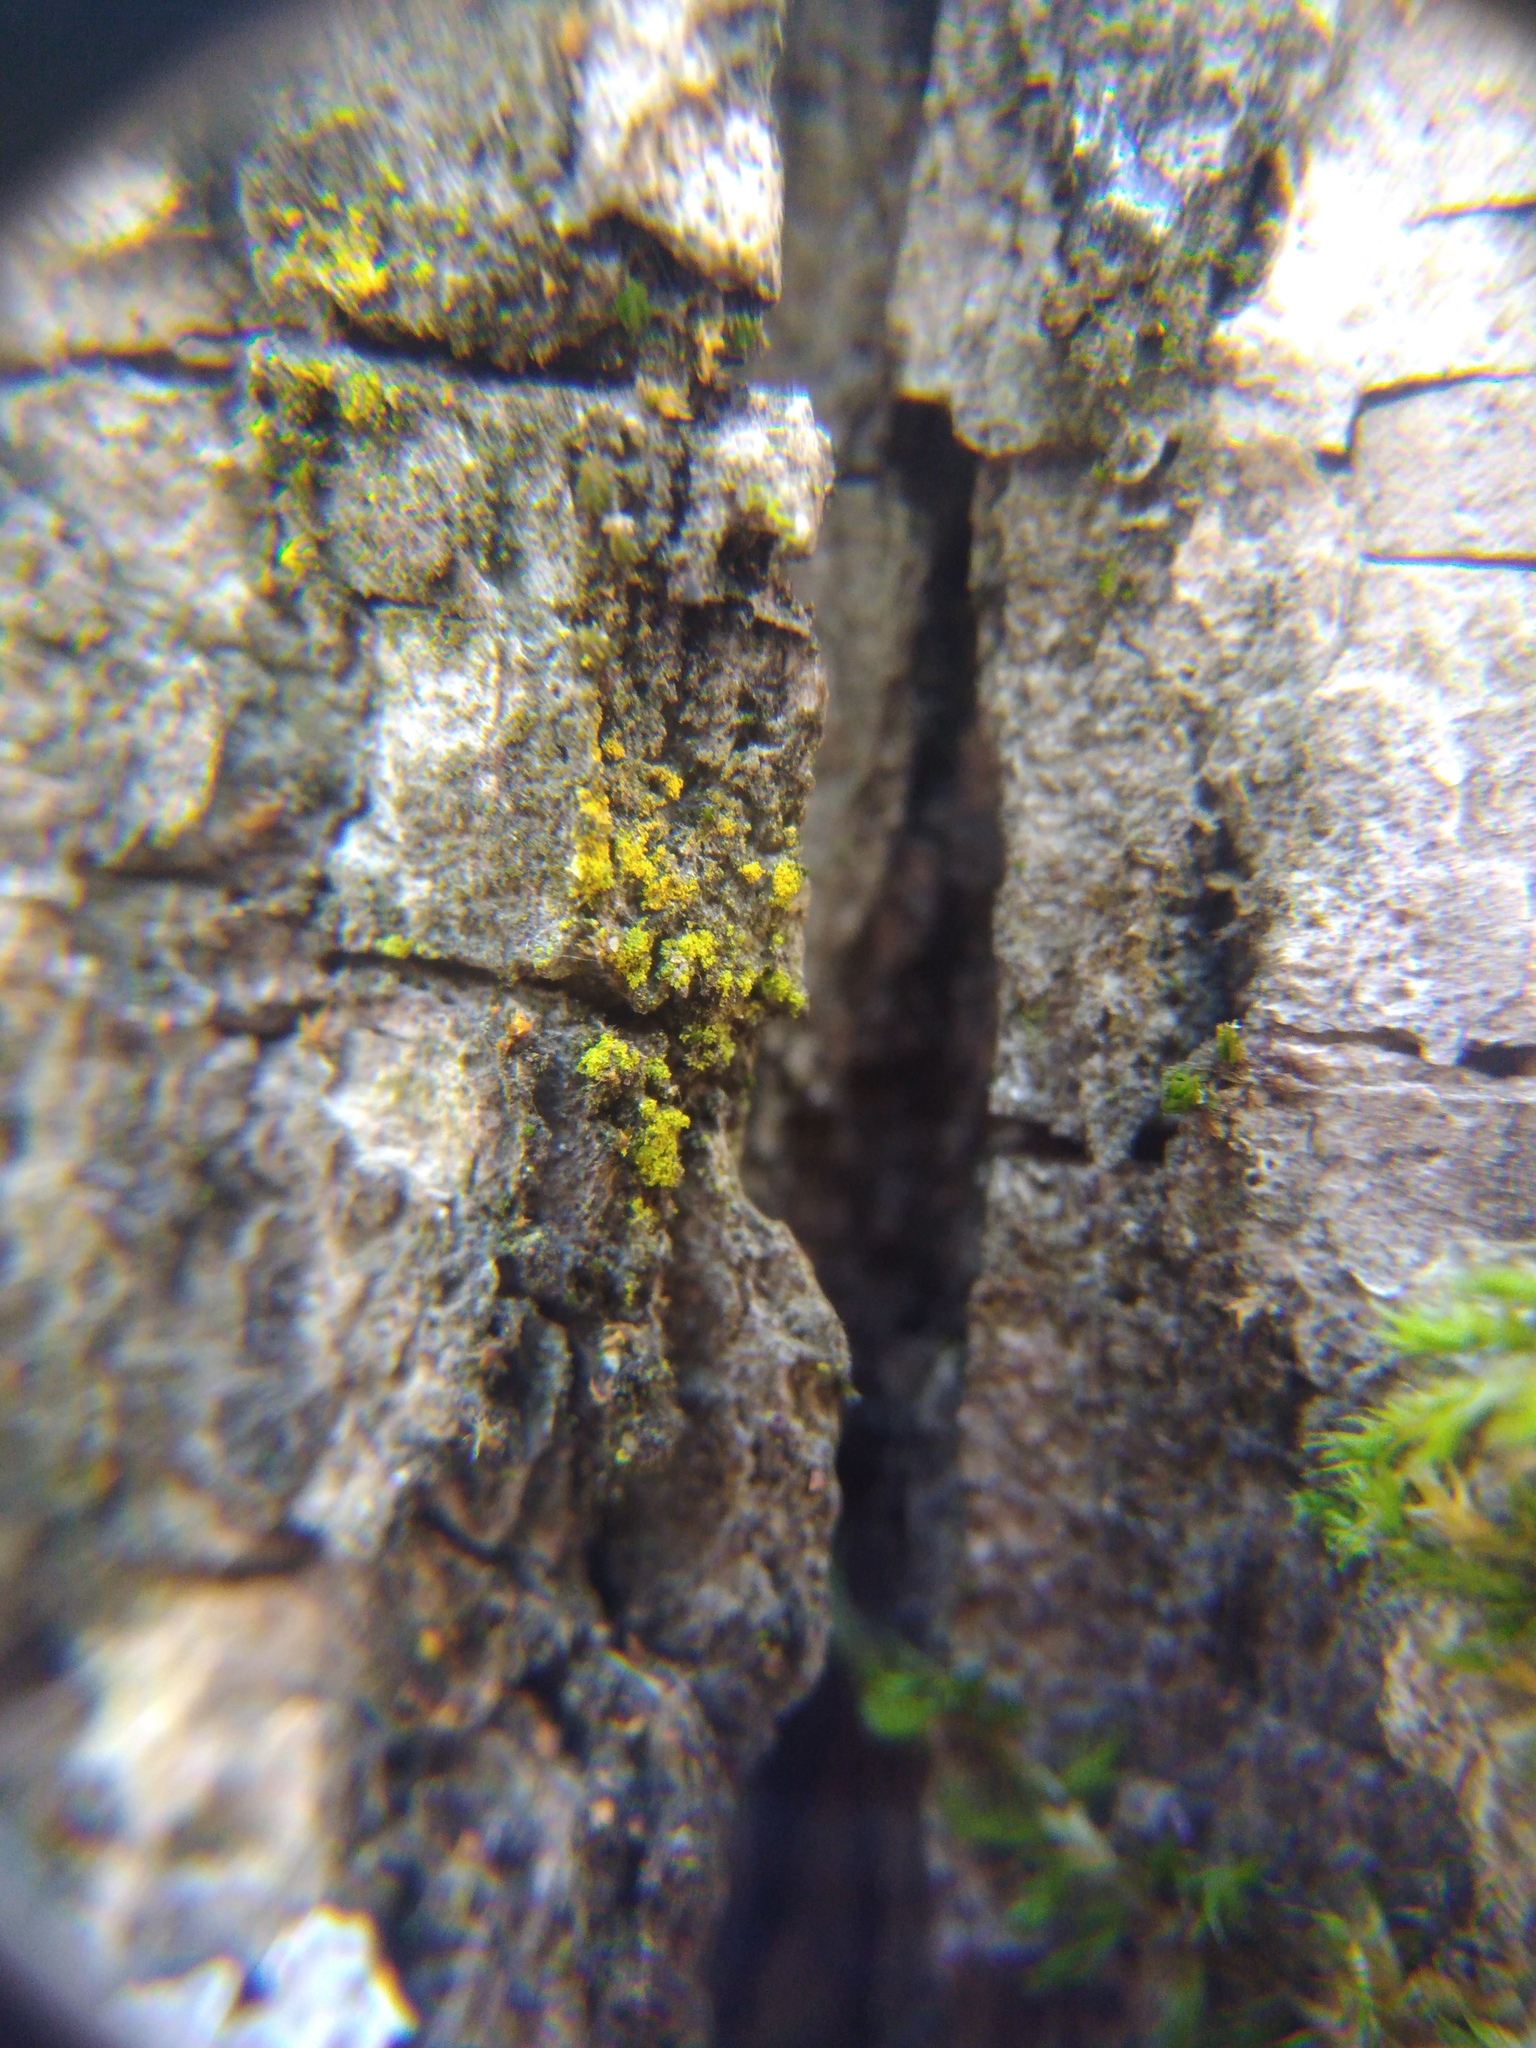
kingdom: Fungi
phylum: Ascomycota
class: Candelariomycetes
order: Candelariales
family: Candelariaceae
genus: Candelariella
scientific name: Candelariella efflorescens
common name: Powdery goldspeck
